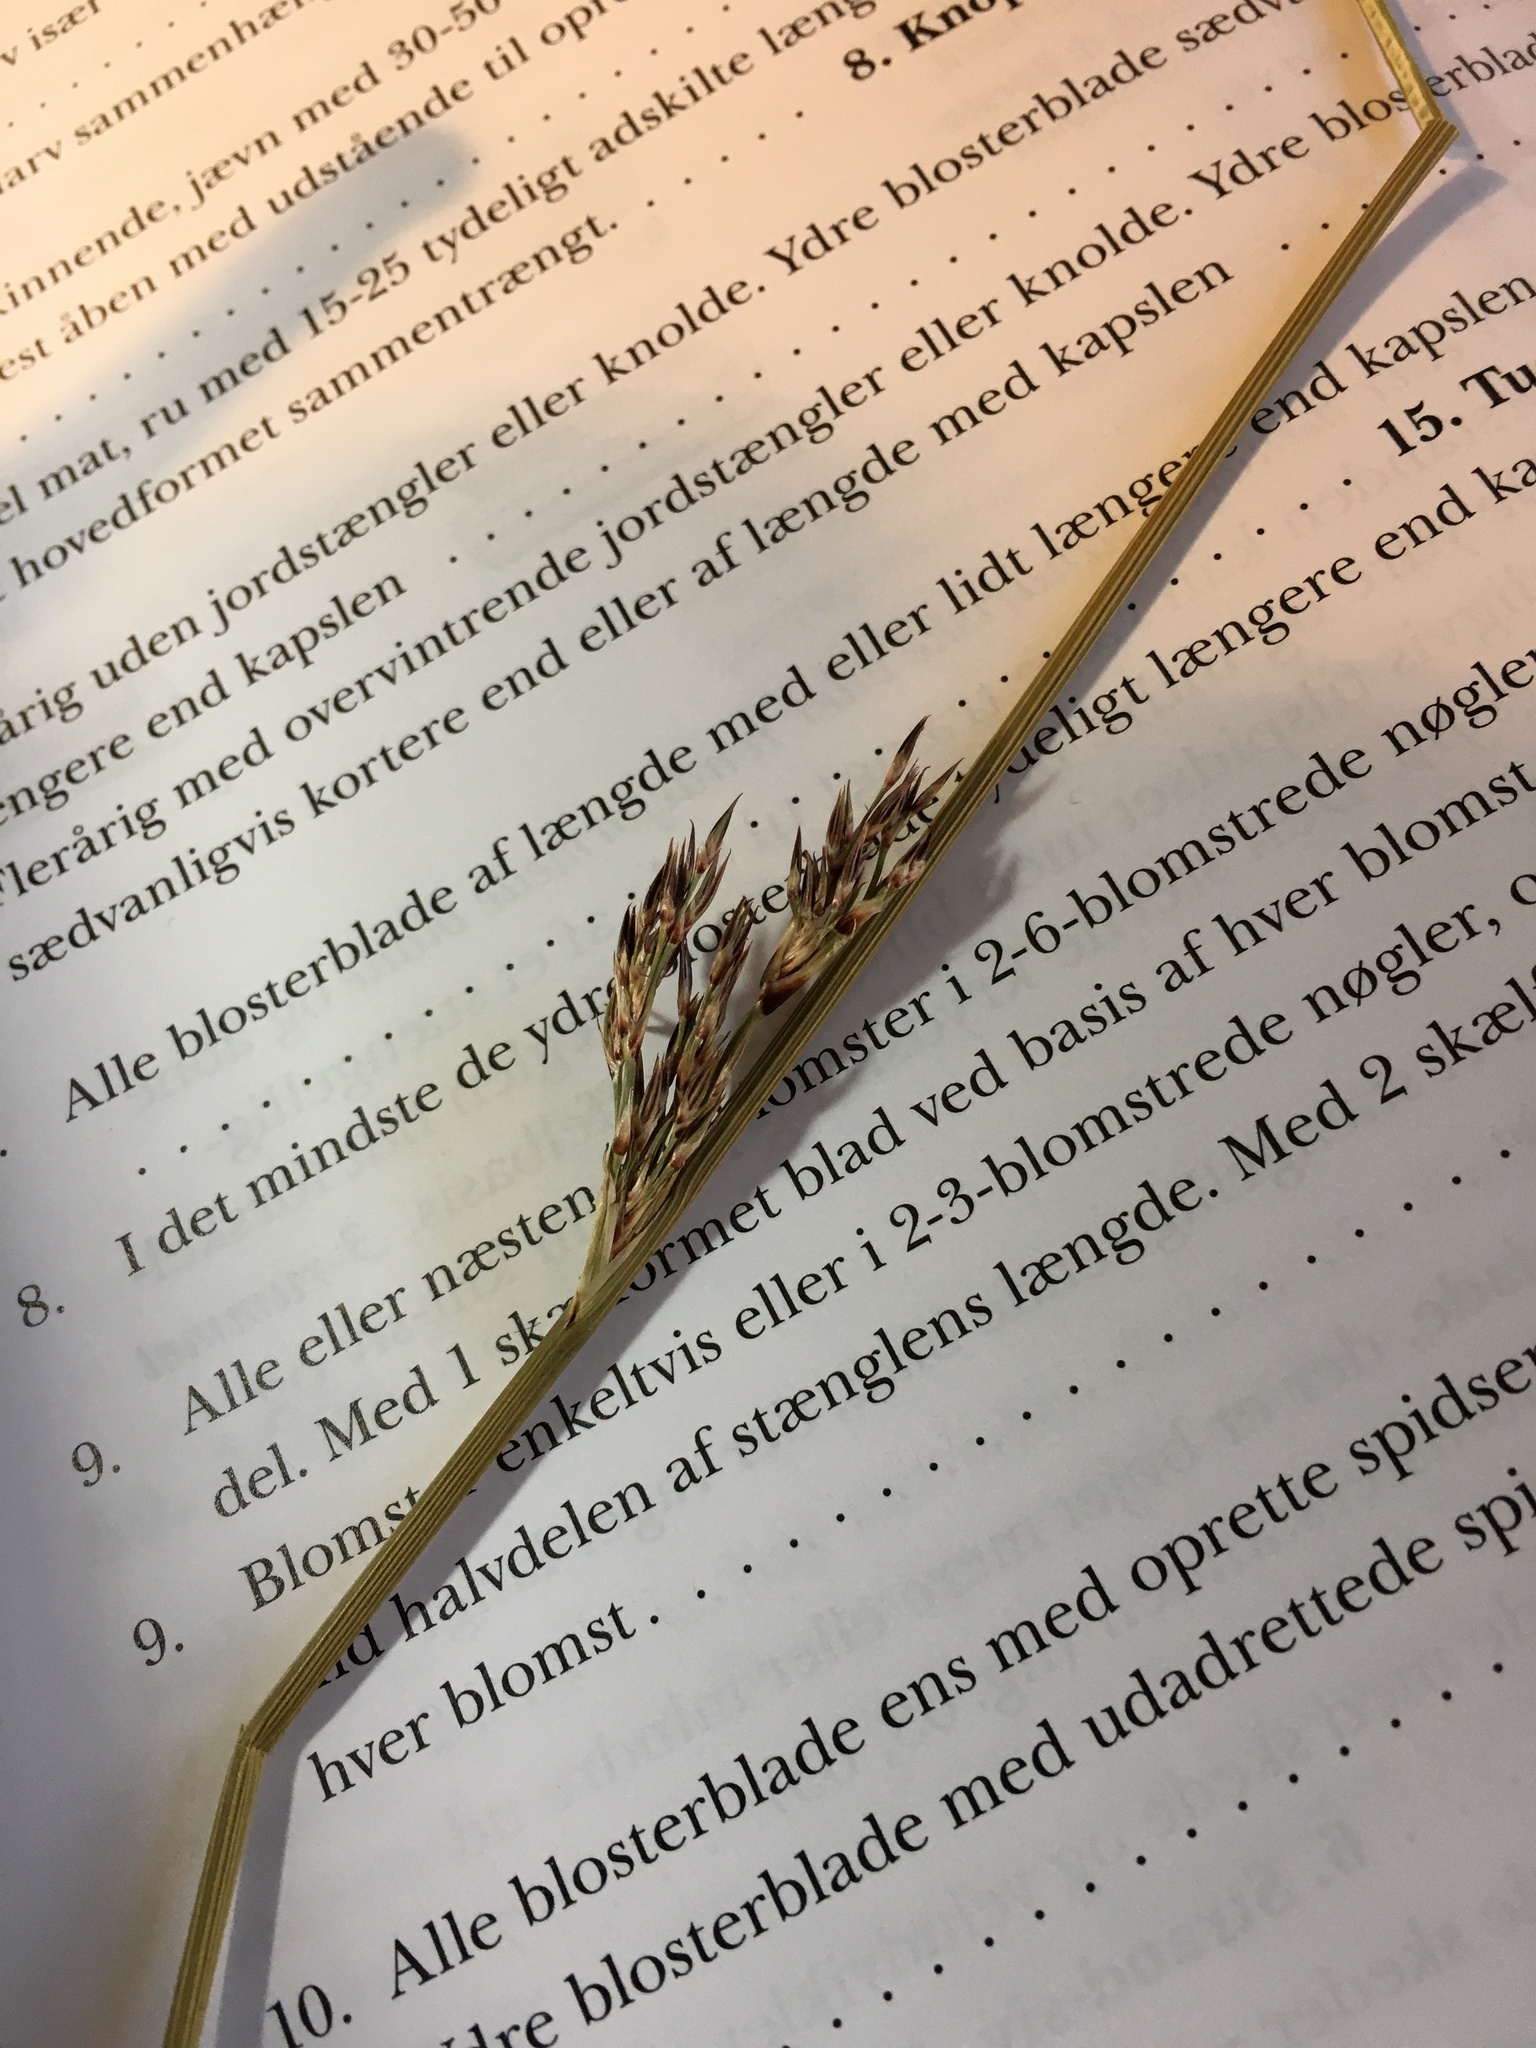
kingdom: Plantae
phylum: Tracheophyta
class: Liliopsida
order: Poales
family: Juncaceae
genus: Juncus
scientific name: Juncus inflexus
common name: Hard rush
